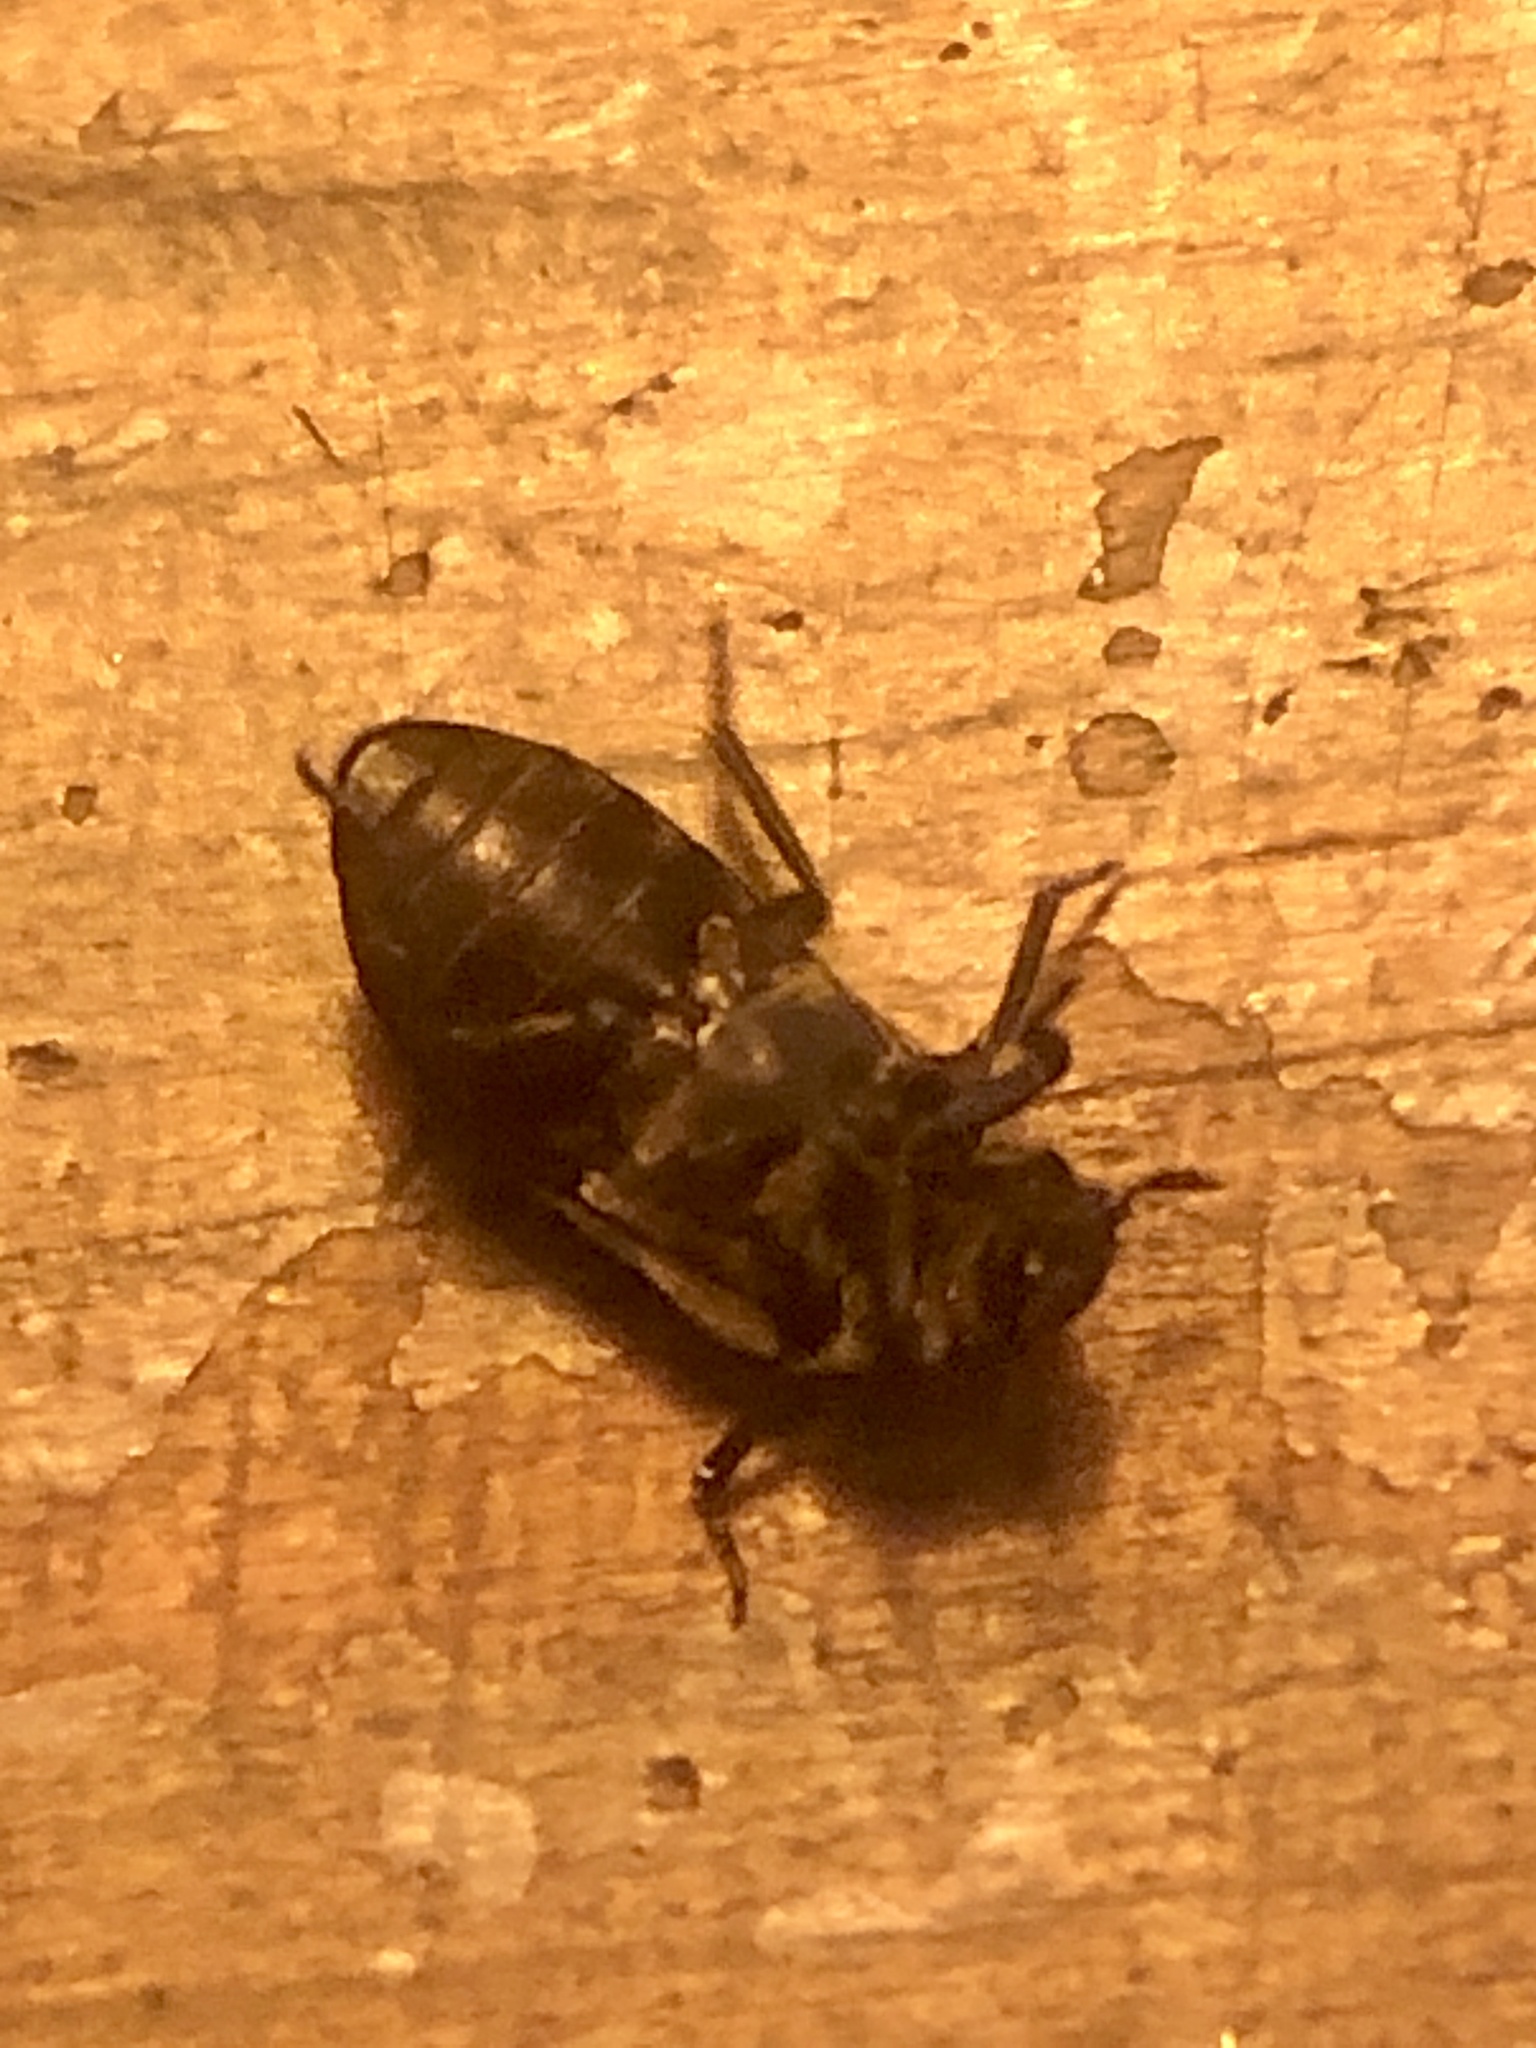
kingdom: Animalia
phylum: Arthropoda
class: Insecta
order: Coleoptera
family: Dermestidae
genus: Dermestes
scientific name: Dermestes lardarius
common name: Larder beetle
